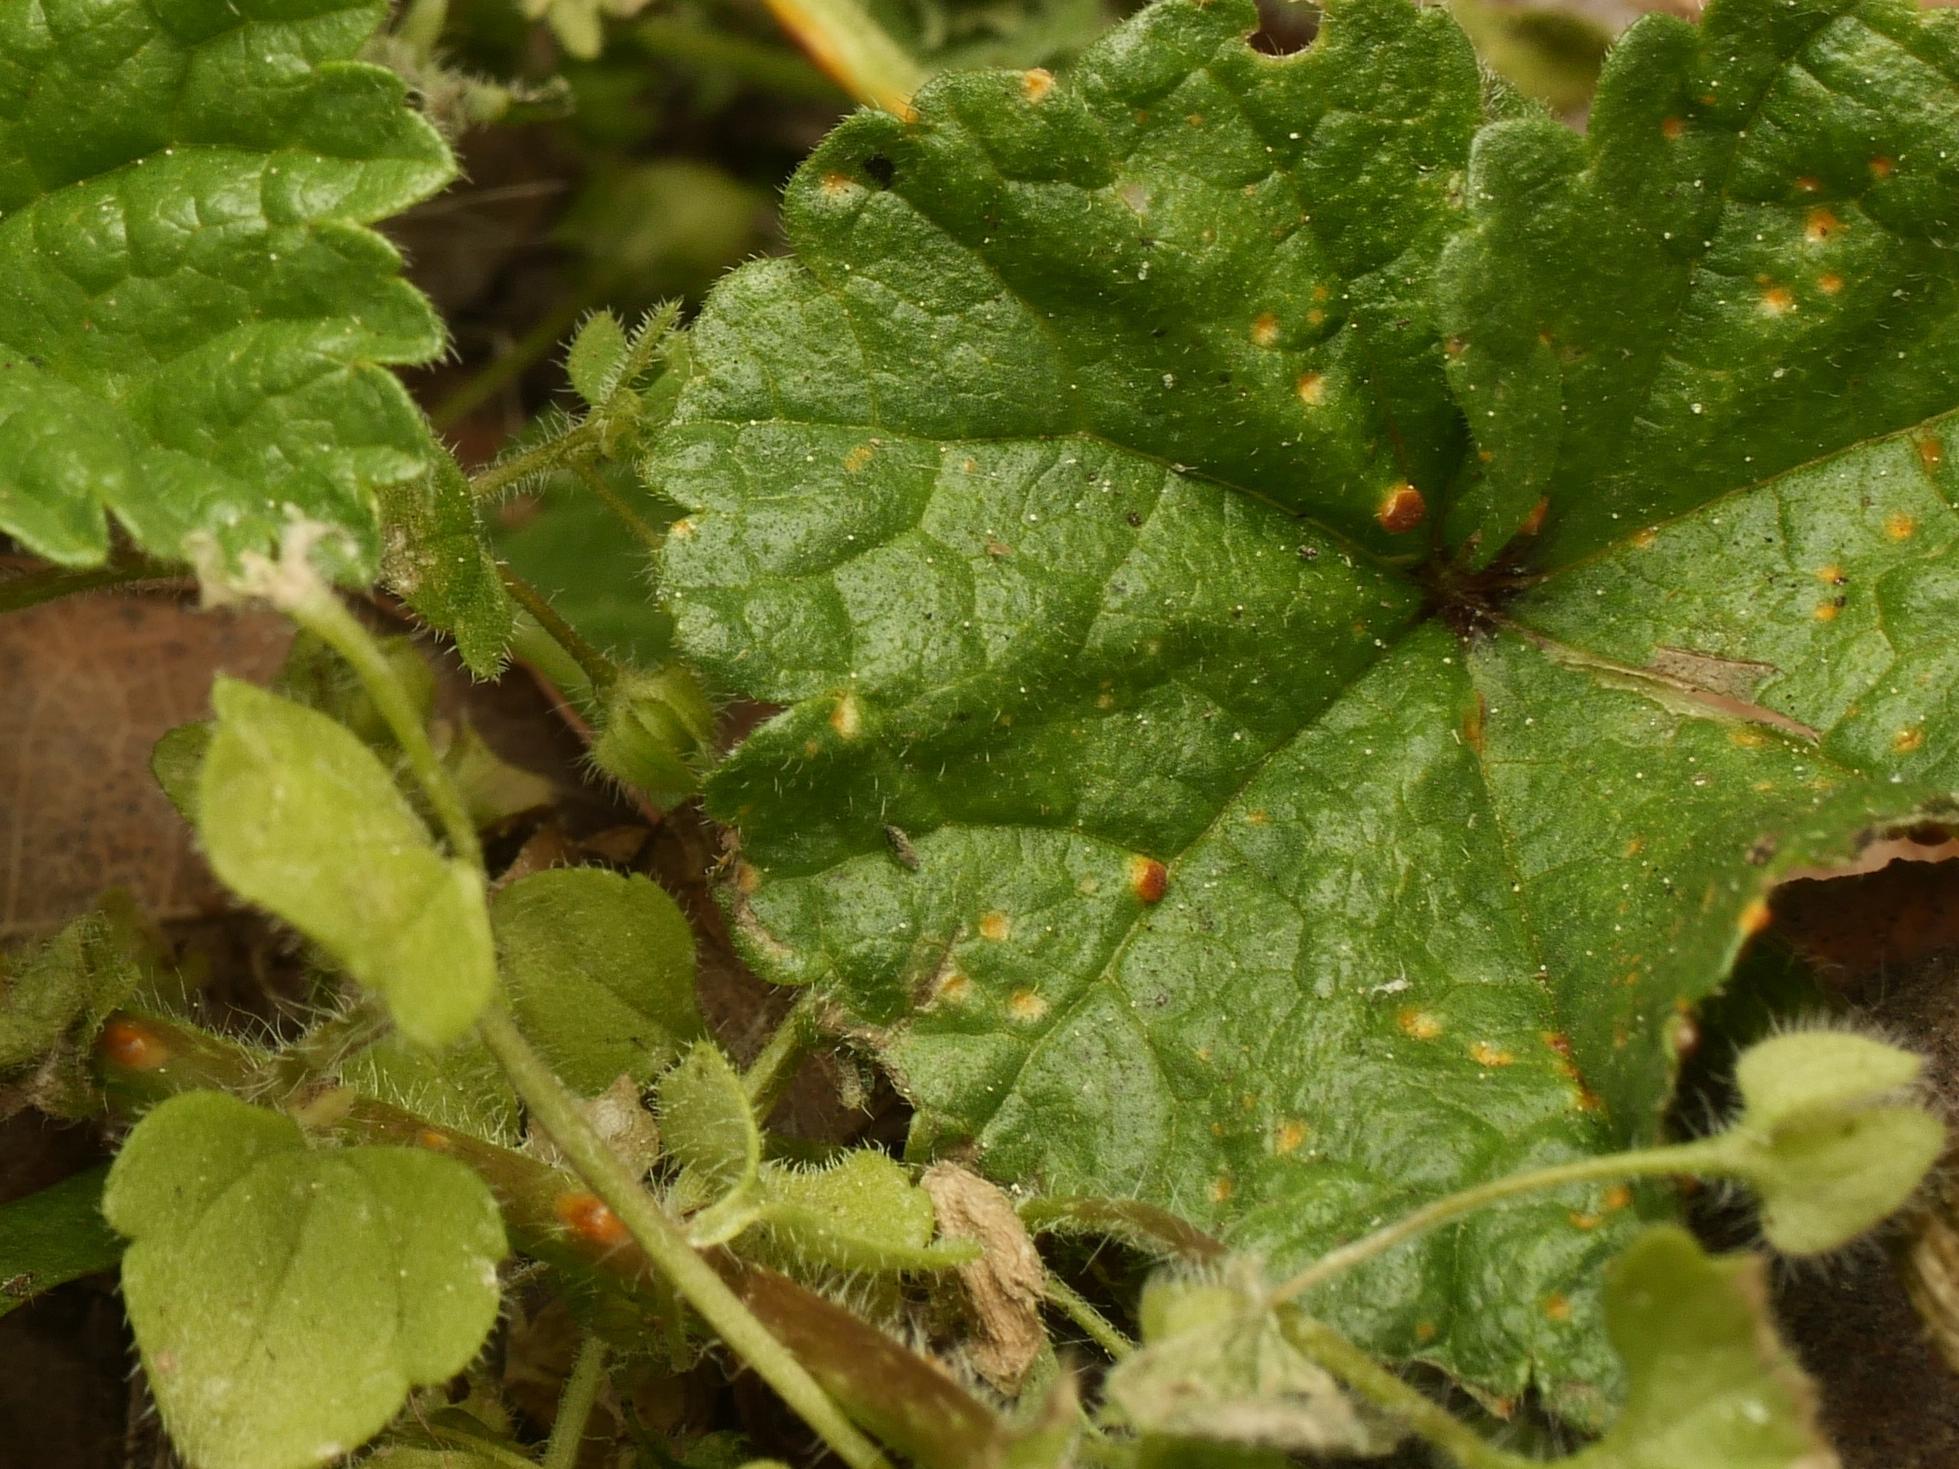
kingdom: Fungi
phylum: Basidiomycota
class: Pucciniomycetes
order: Pucciniales
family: Pucciniaceae
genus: Puccinia
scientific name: Puccinia malvacearum
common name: Hollyhock rust
